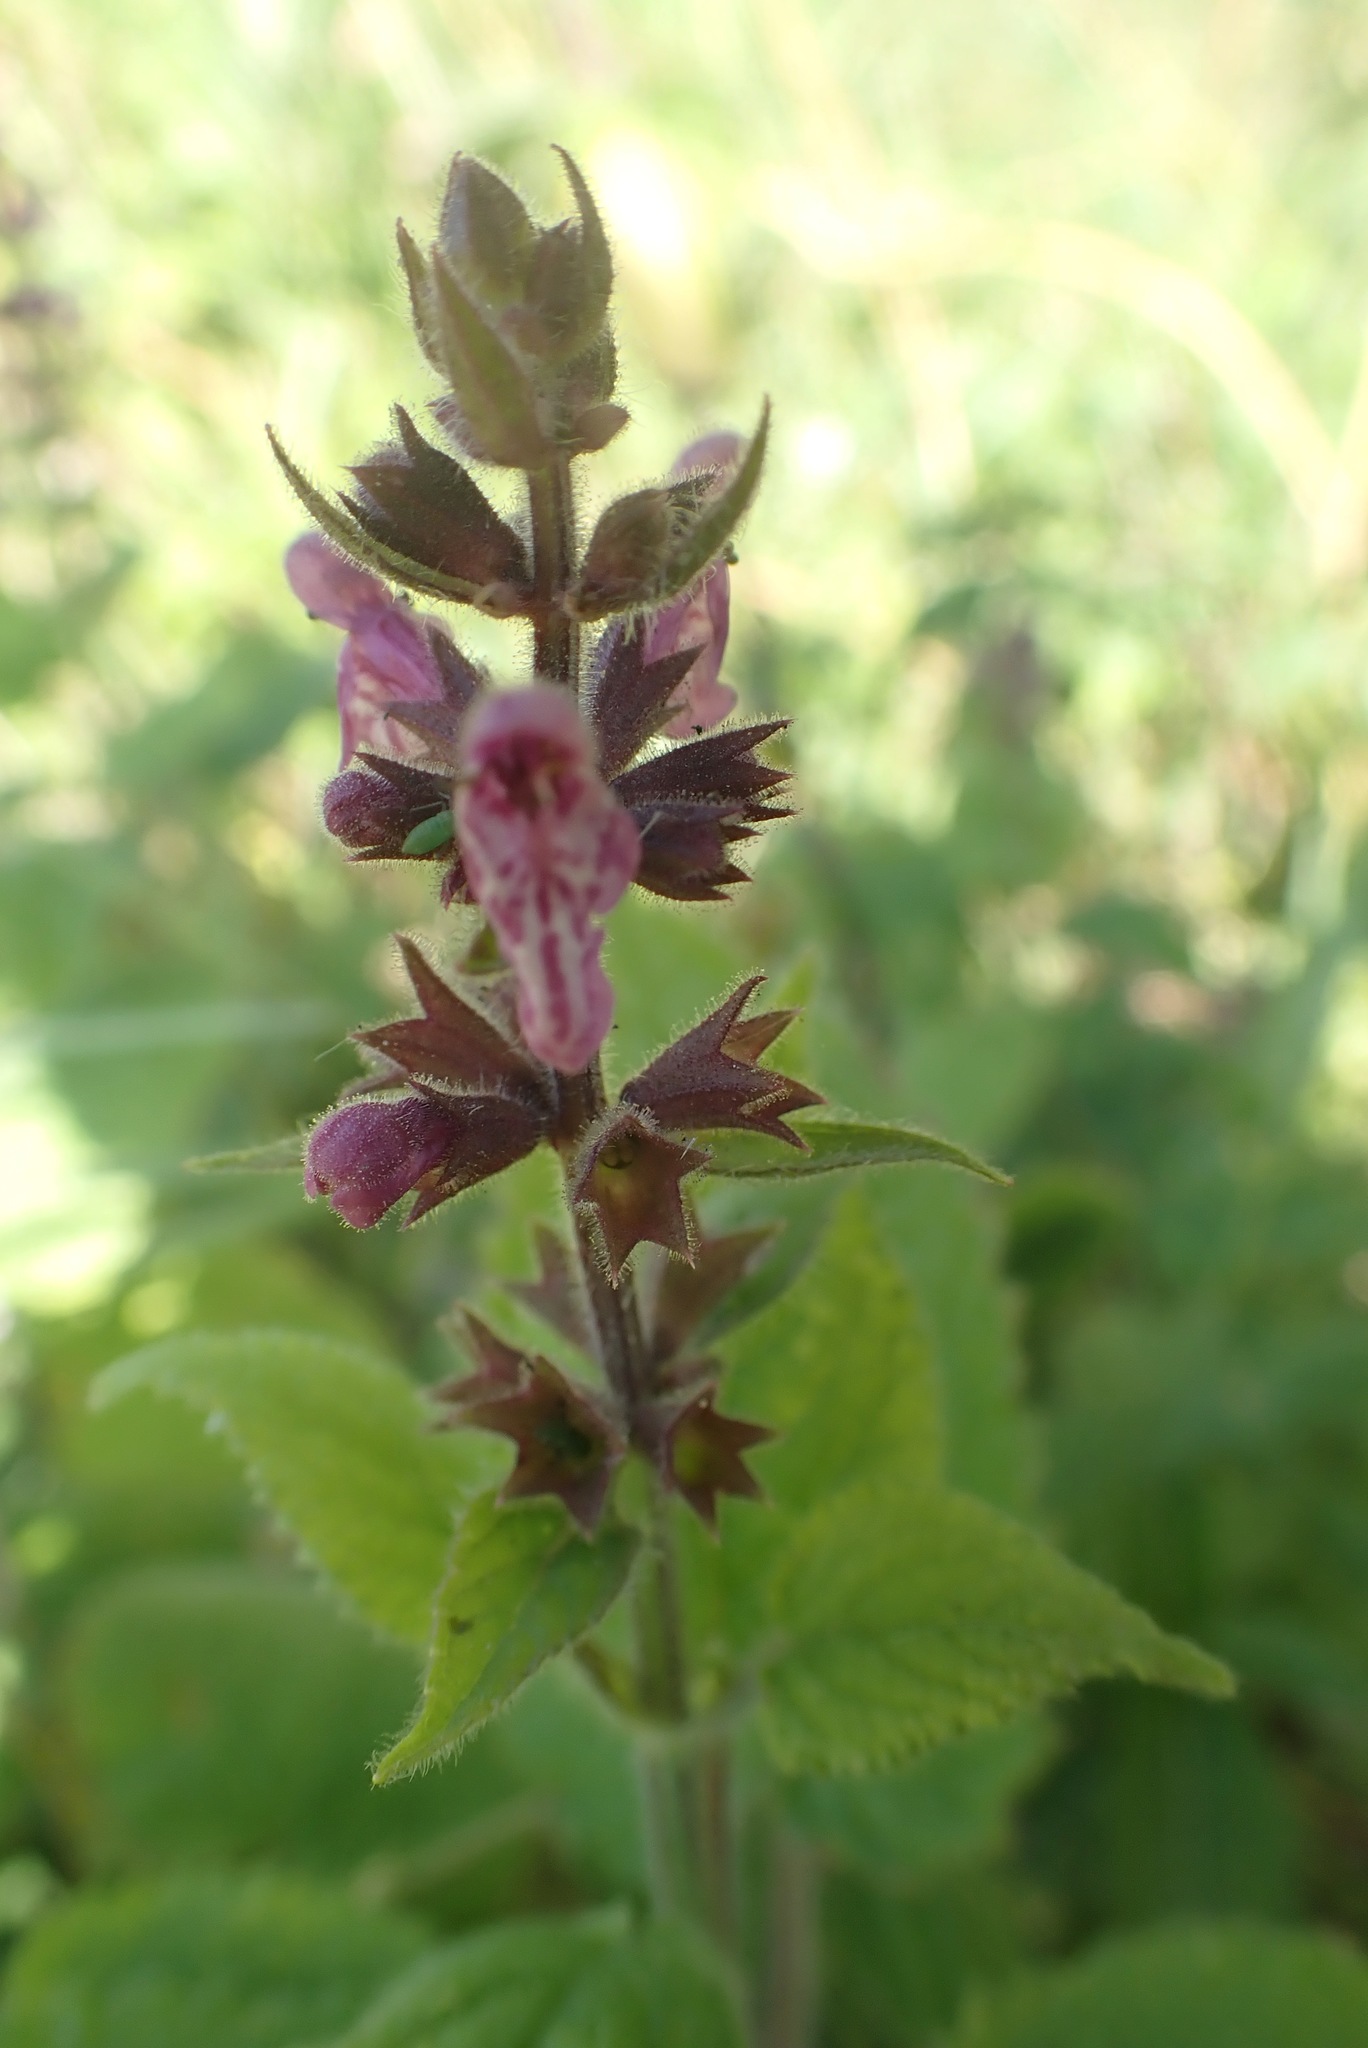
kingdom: Plantae
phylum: Tracheophyta
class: Magnoliopsida
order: Lamiales
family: Lamiaceae
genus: Stachys
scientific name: Stachys sylvatica
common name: Hedge woundwort
